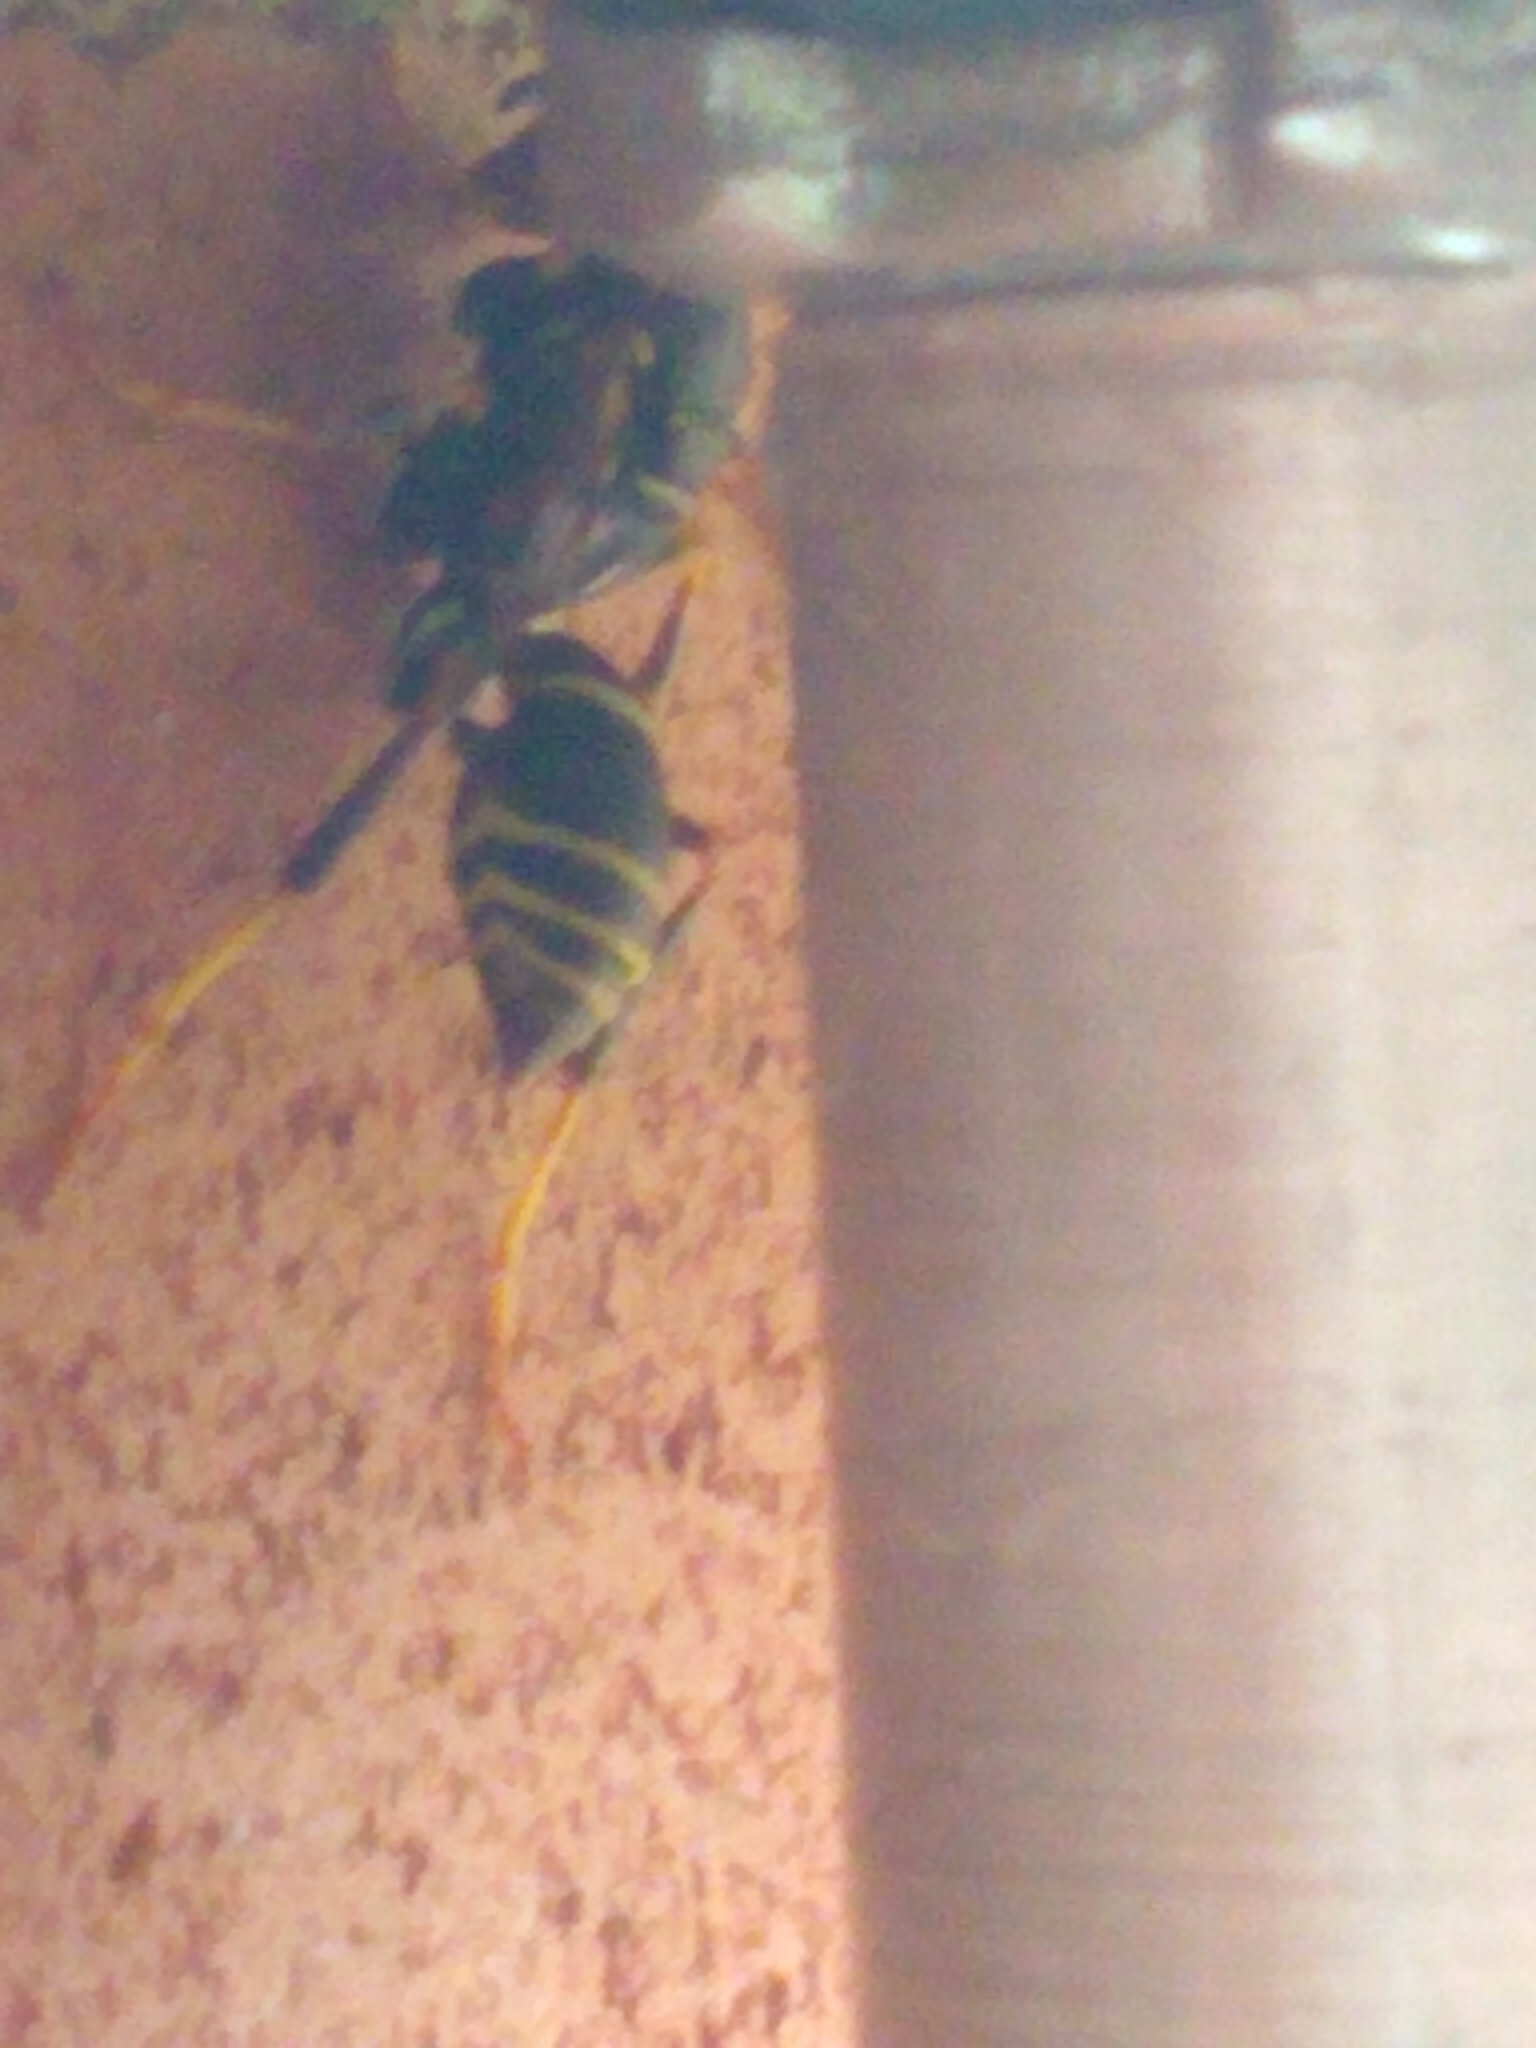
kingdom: Animalia
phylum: Arthropoda
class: Insecta
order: Hymenoptera
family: Eumenidae
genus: Polistes
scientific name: Polistes fuscatus
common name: Dark paper wasp
